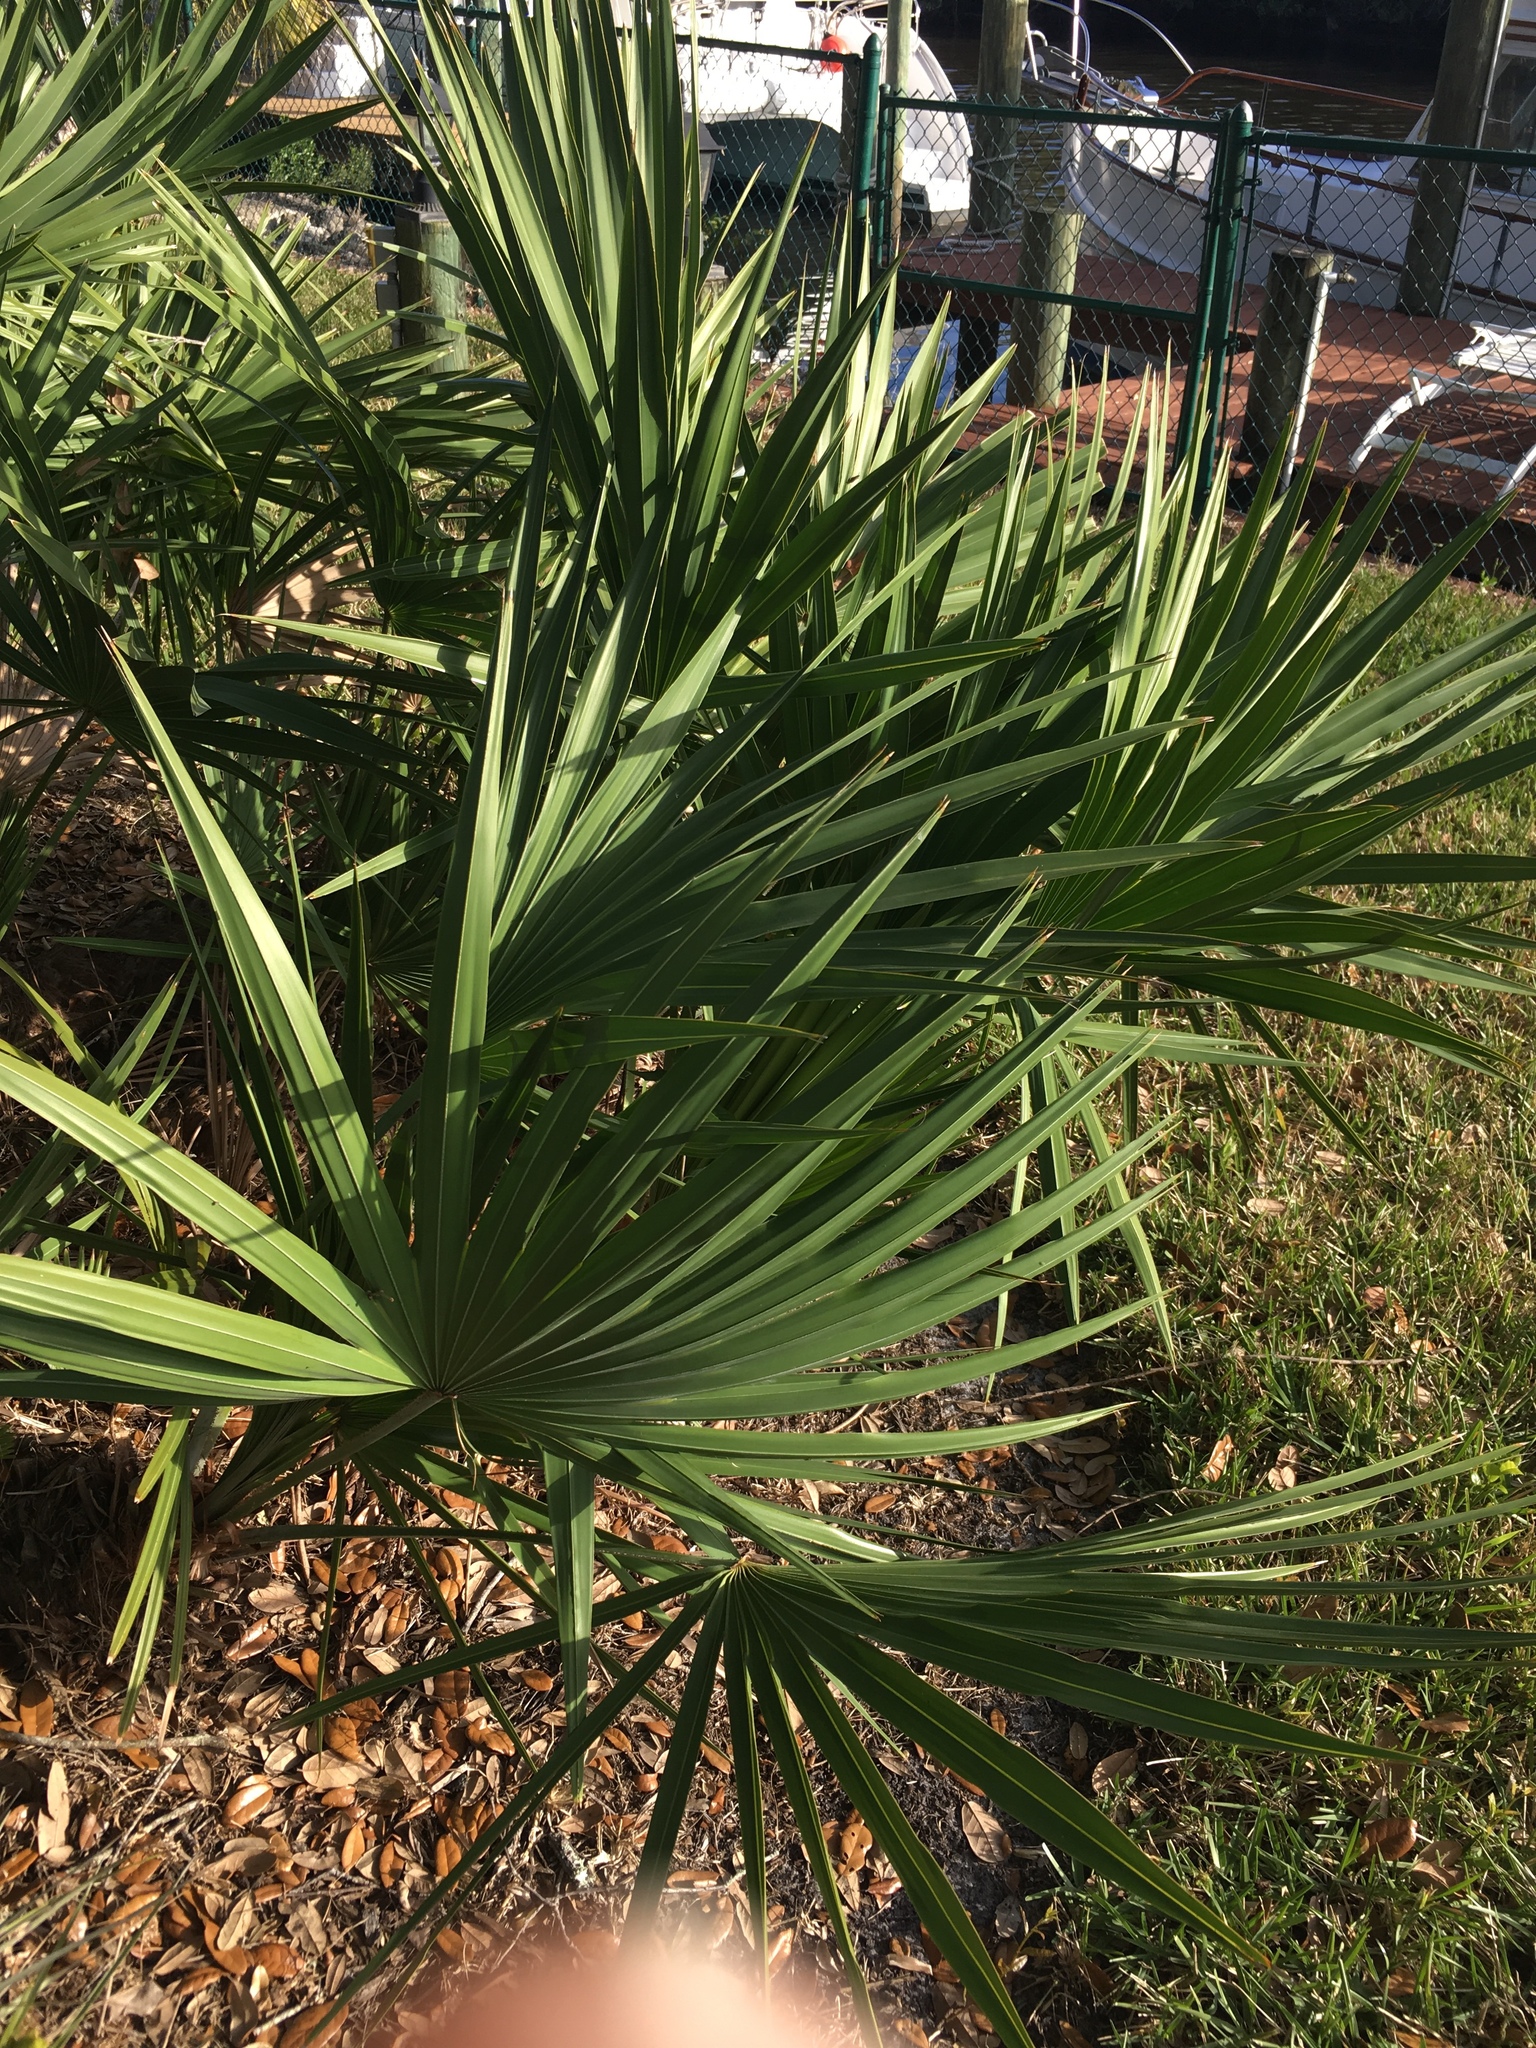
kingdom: Plantae
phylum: Tracheophyta
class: Liliopsida
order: Arecales
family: Arecaceae
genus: Serenoa
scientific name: Serenoa repens
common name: Saw-palmetto
